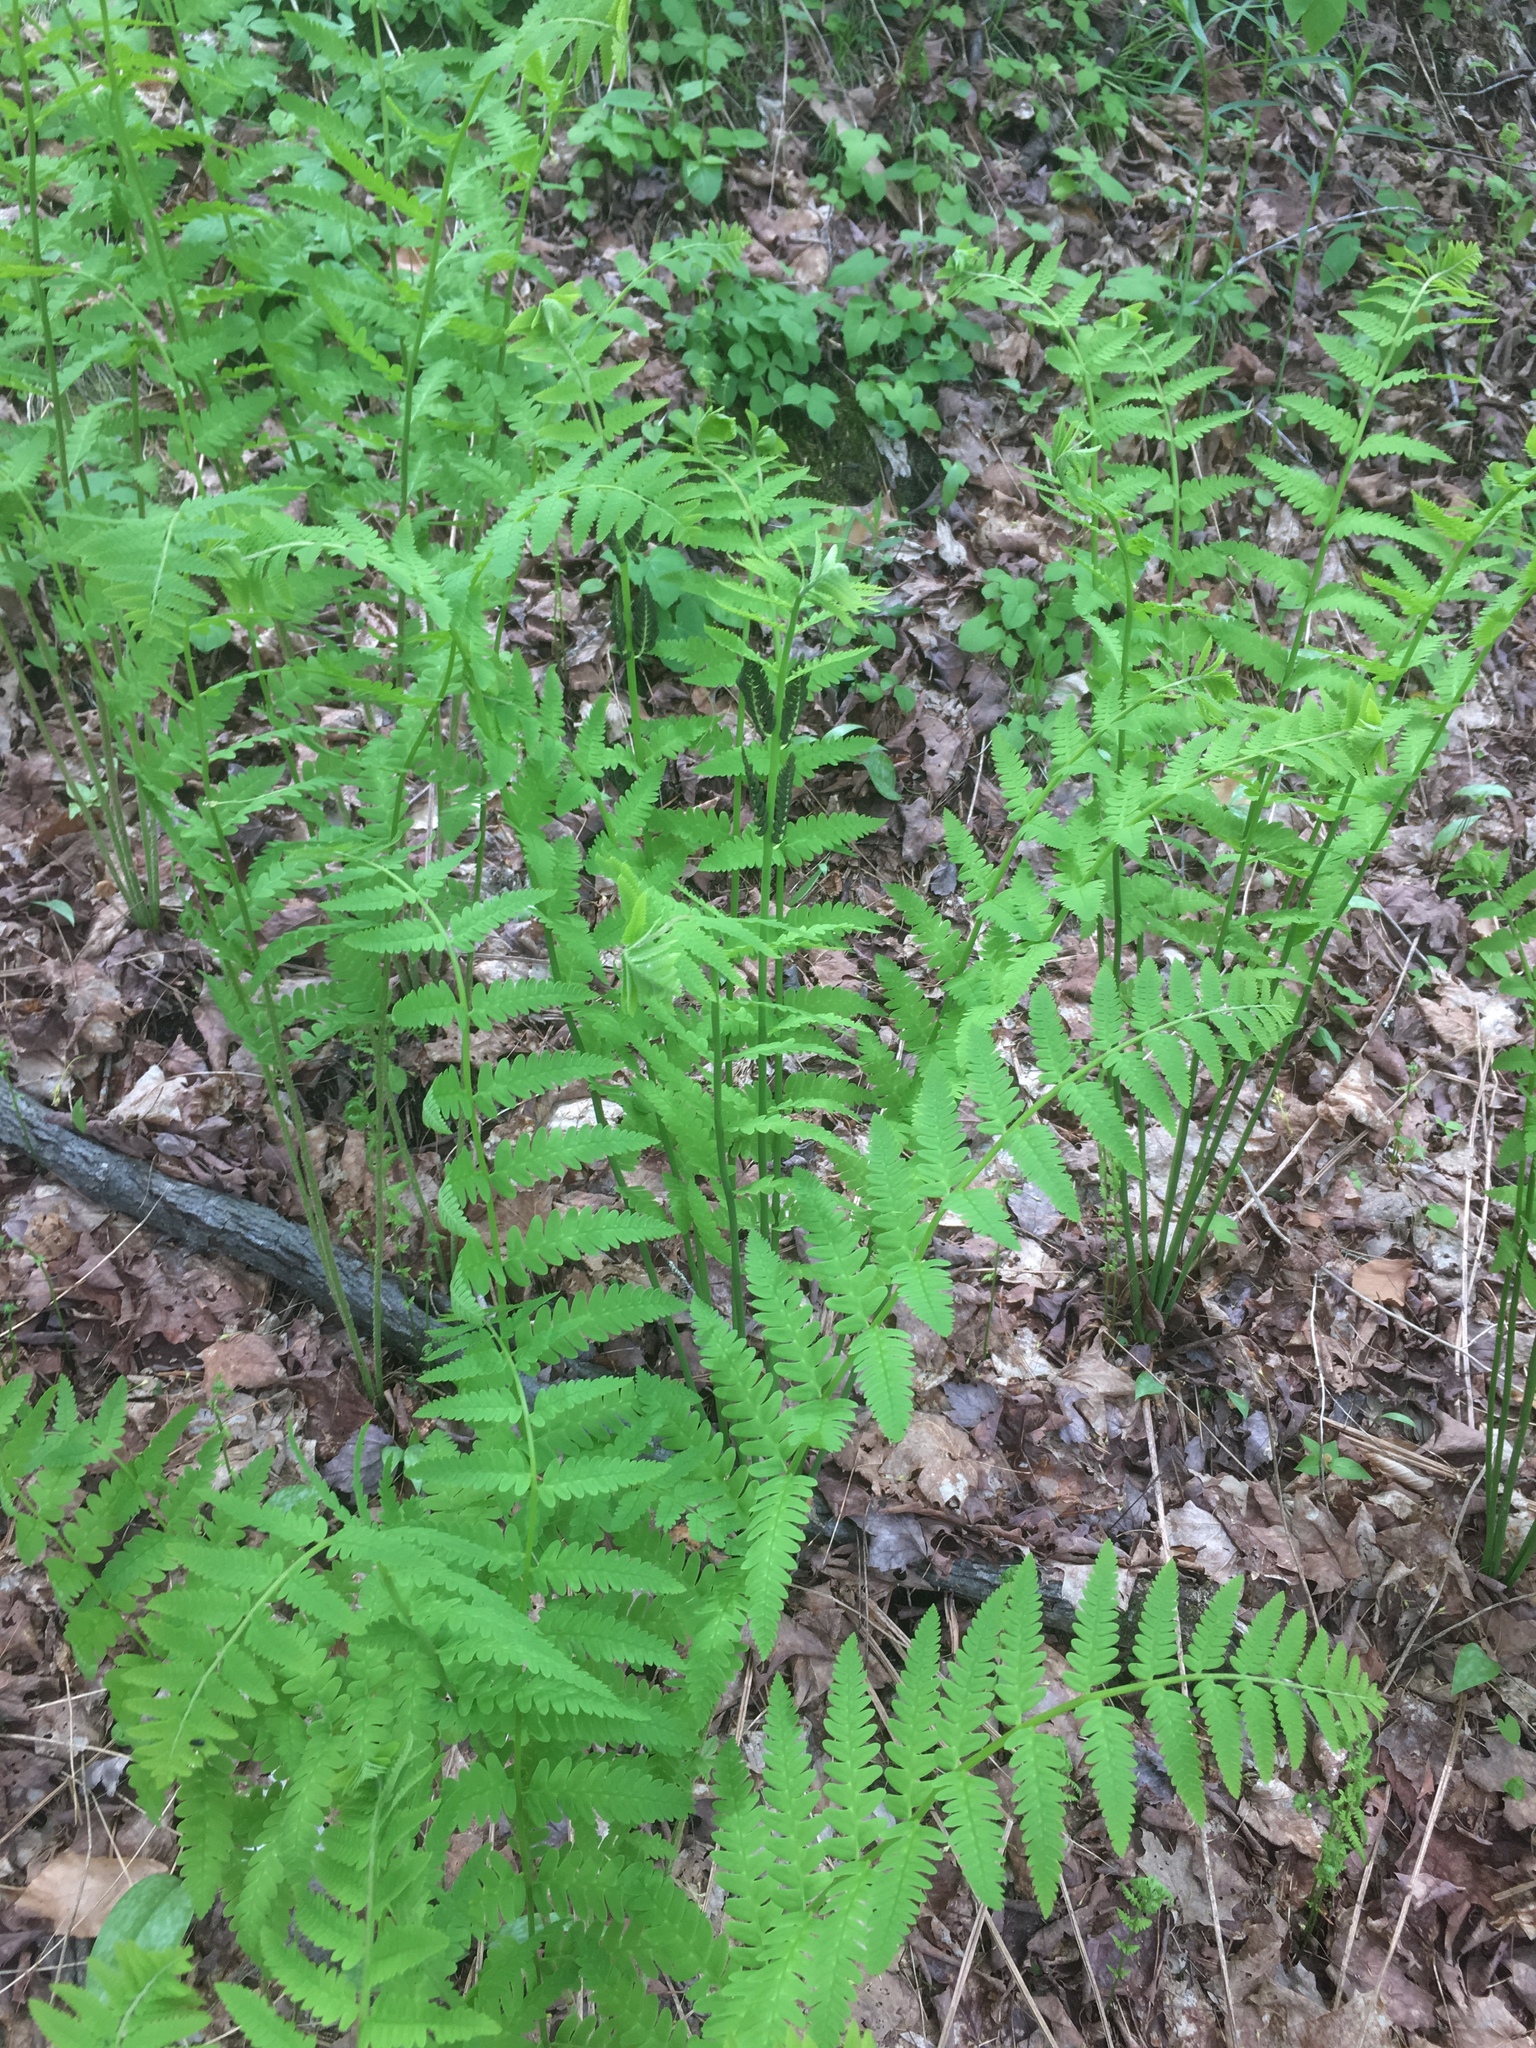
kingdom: Plantae
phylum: Tracheophyta
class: Polypodiopsida
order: Osmundales
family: Osmundaceae
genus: Claytosmunda
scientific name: Claytosmunda claytoniana
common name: Clayton's fern
